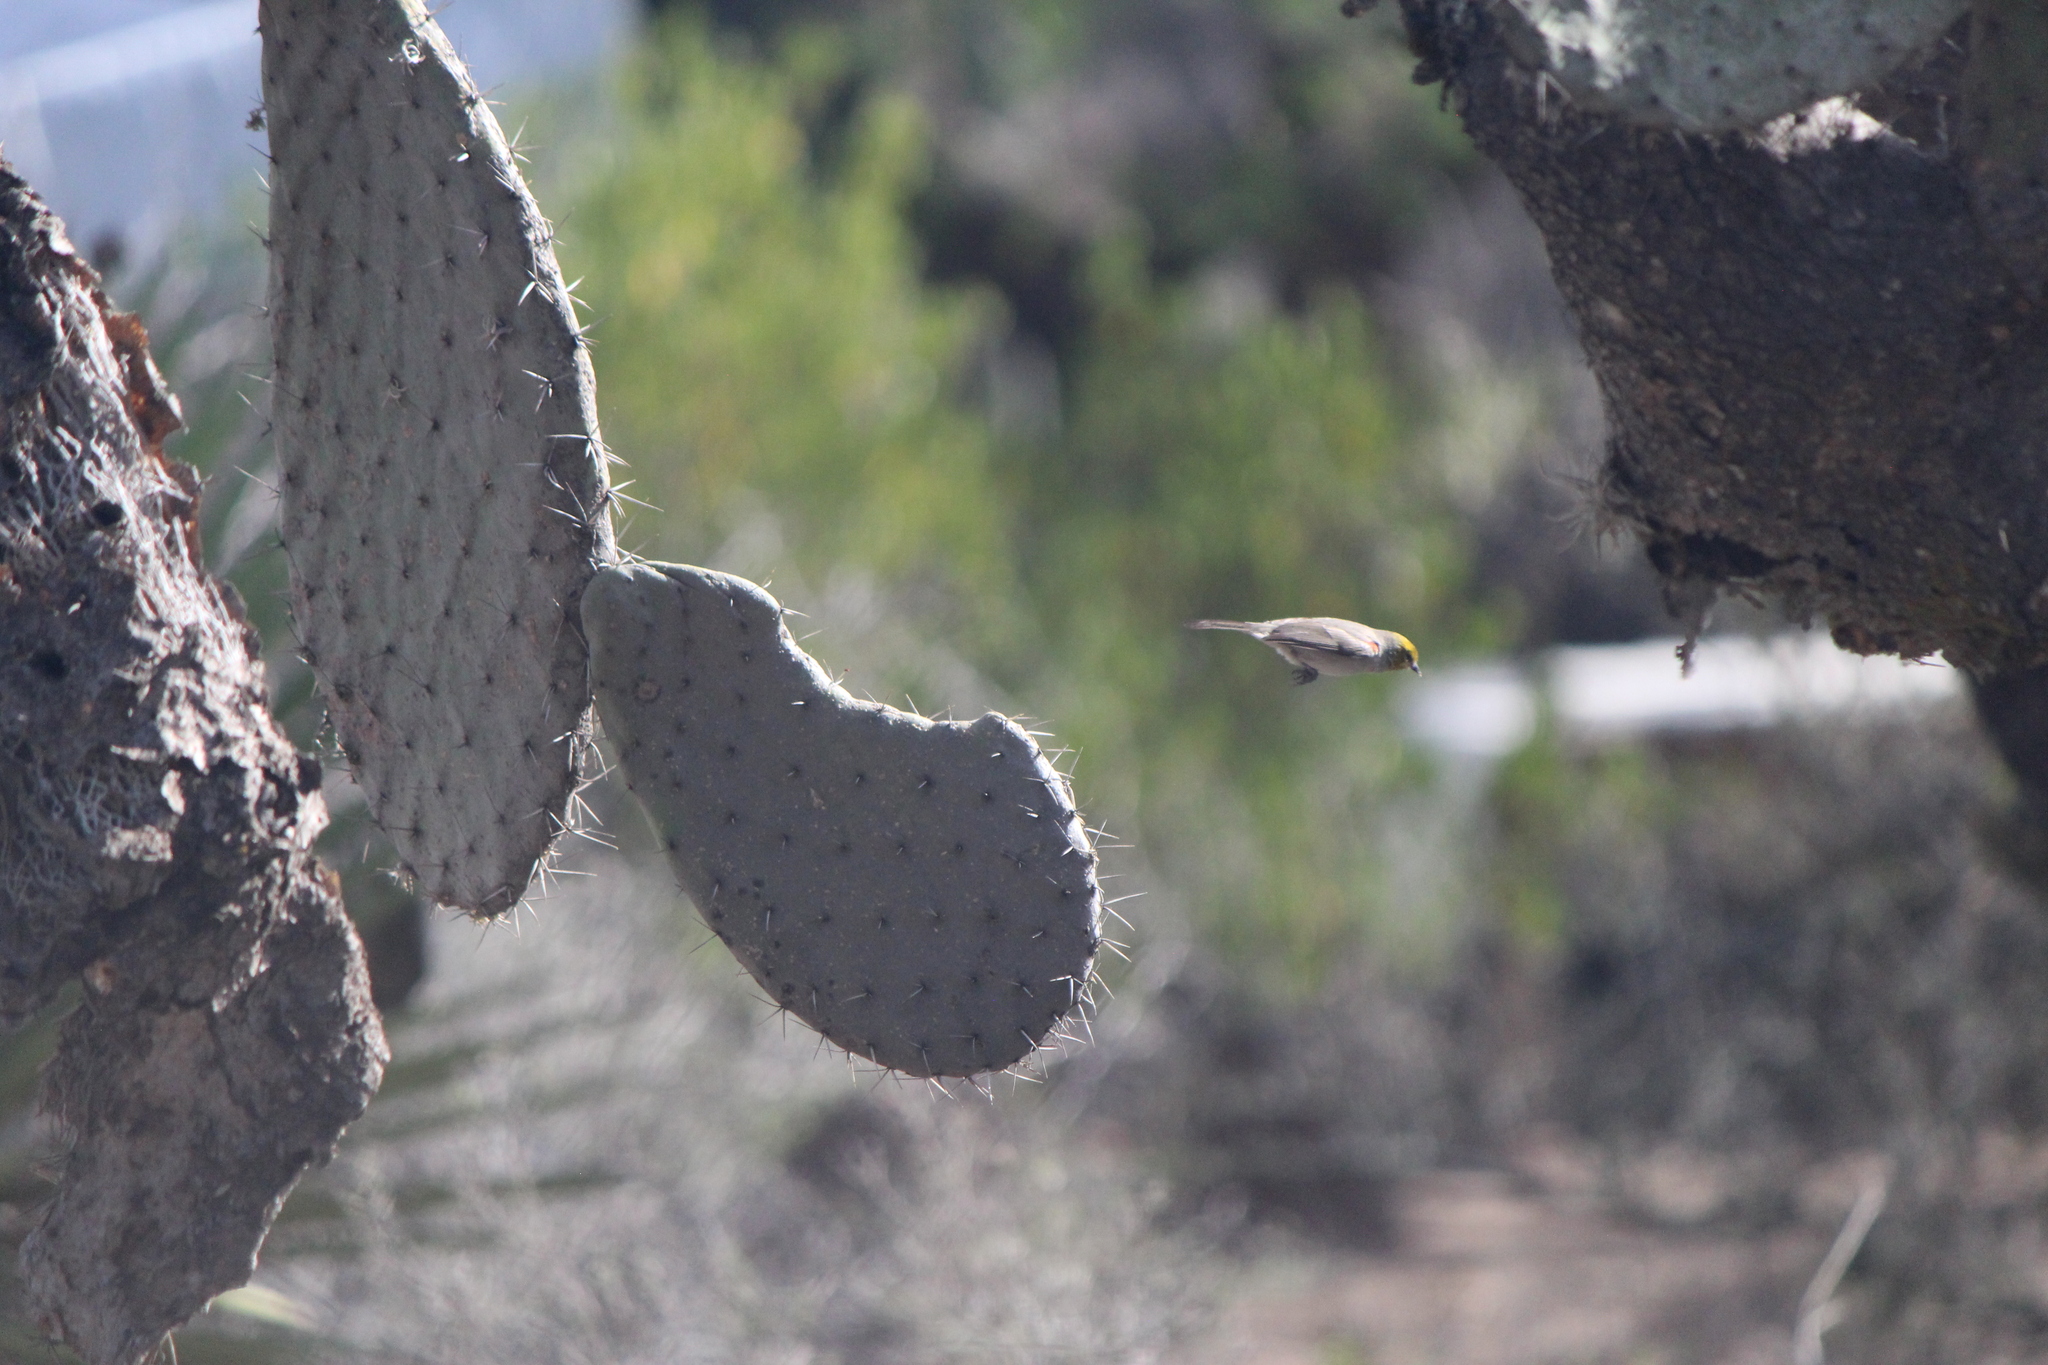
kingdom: Animalia
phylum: Chordata
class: Aves
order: Passeriformes
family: Remizidae
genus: Auriparus
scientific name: Auriparus flaviceps
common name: Verdin
